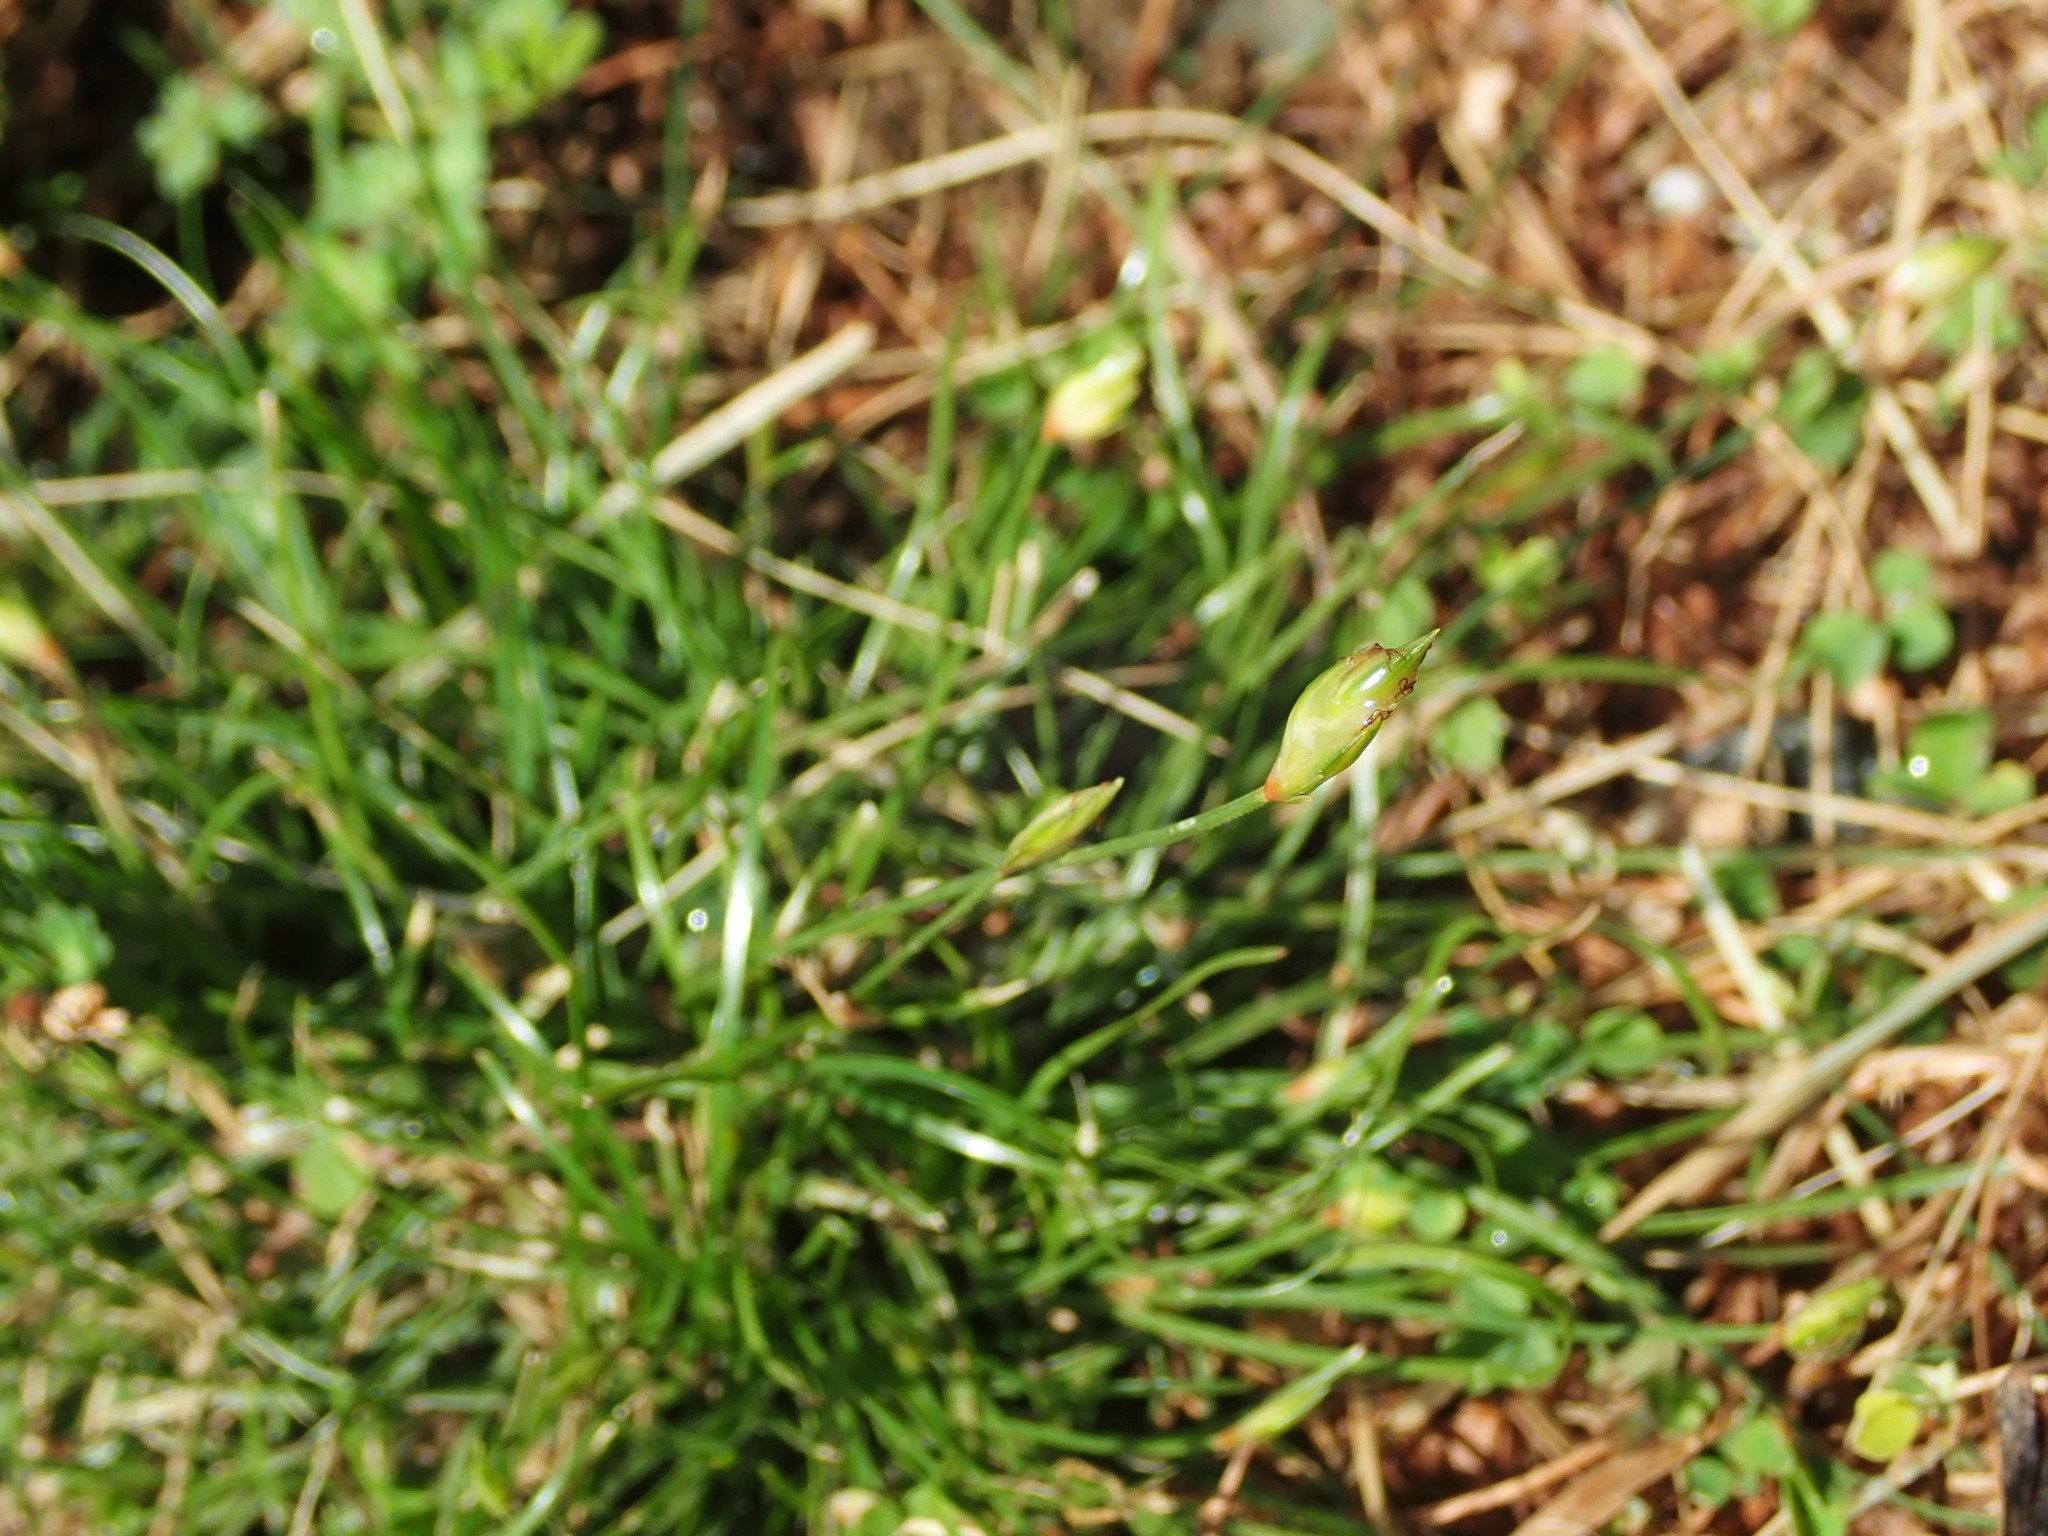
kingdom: Plantae
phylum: Tracheophyta
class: Liliopsida
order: Poales
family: Cyperaceae
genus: Abildgaardia
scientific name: Abildgaardia ovata
